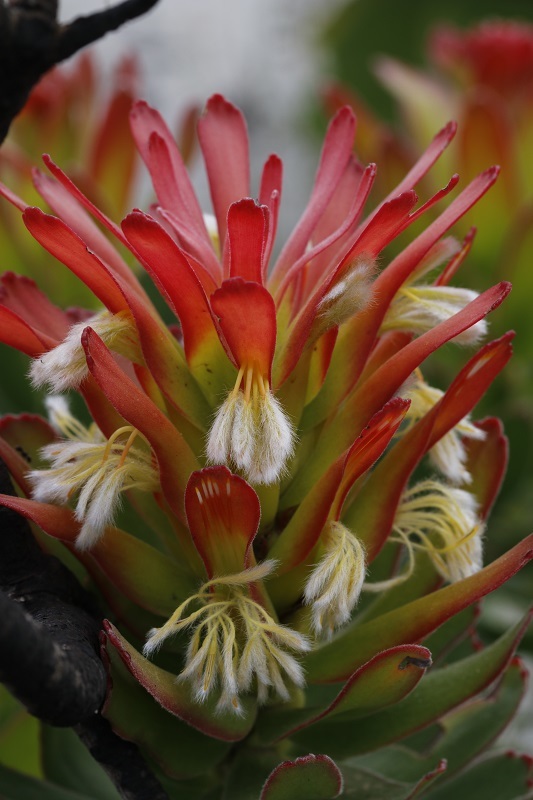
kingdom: Plantae
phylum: Tracheophyta
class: Magnoliopsida
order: Proteales
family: Proteaceae
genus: Mimetes
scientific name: Mimetes cucullatus
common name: Common pagoda
